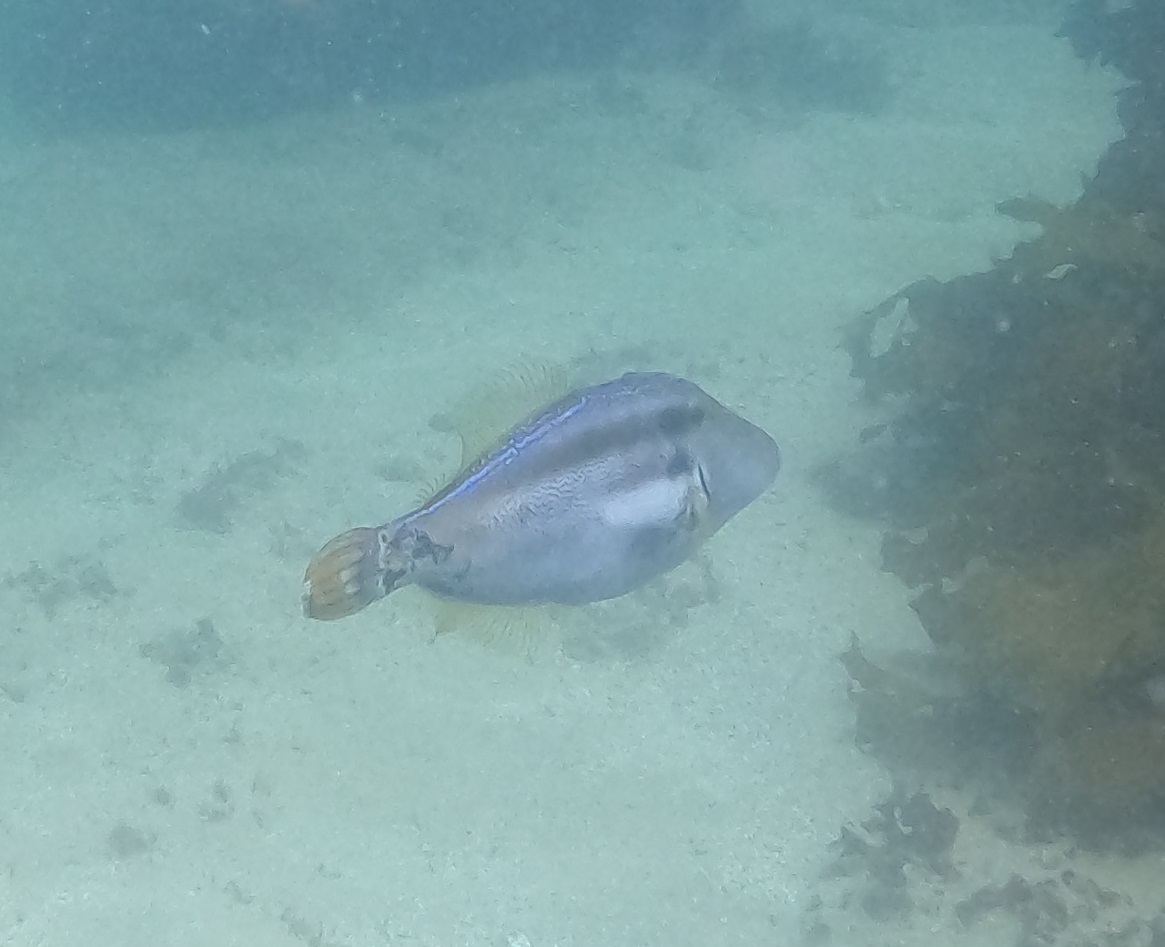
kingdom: Animalia
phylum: Chordata
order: Tetraodontiformes
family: Monacanthidae
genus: Meuschenia
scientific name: Meuschenia trachylepis
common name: Yellowfin leatherjacket
